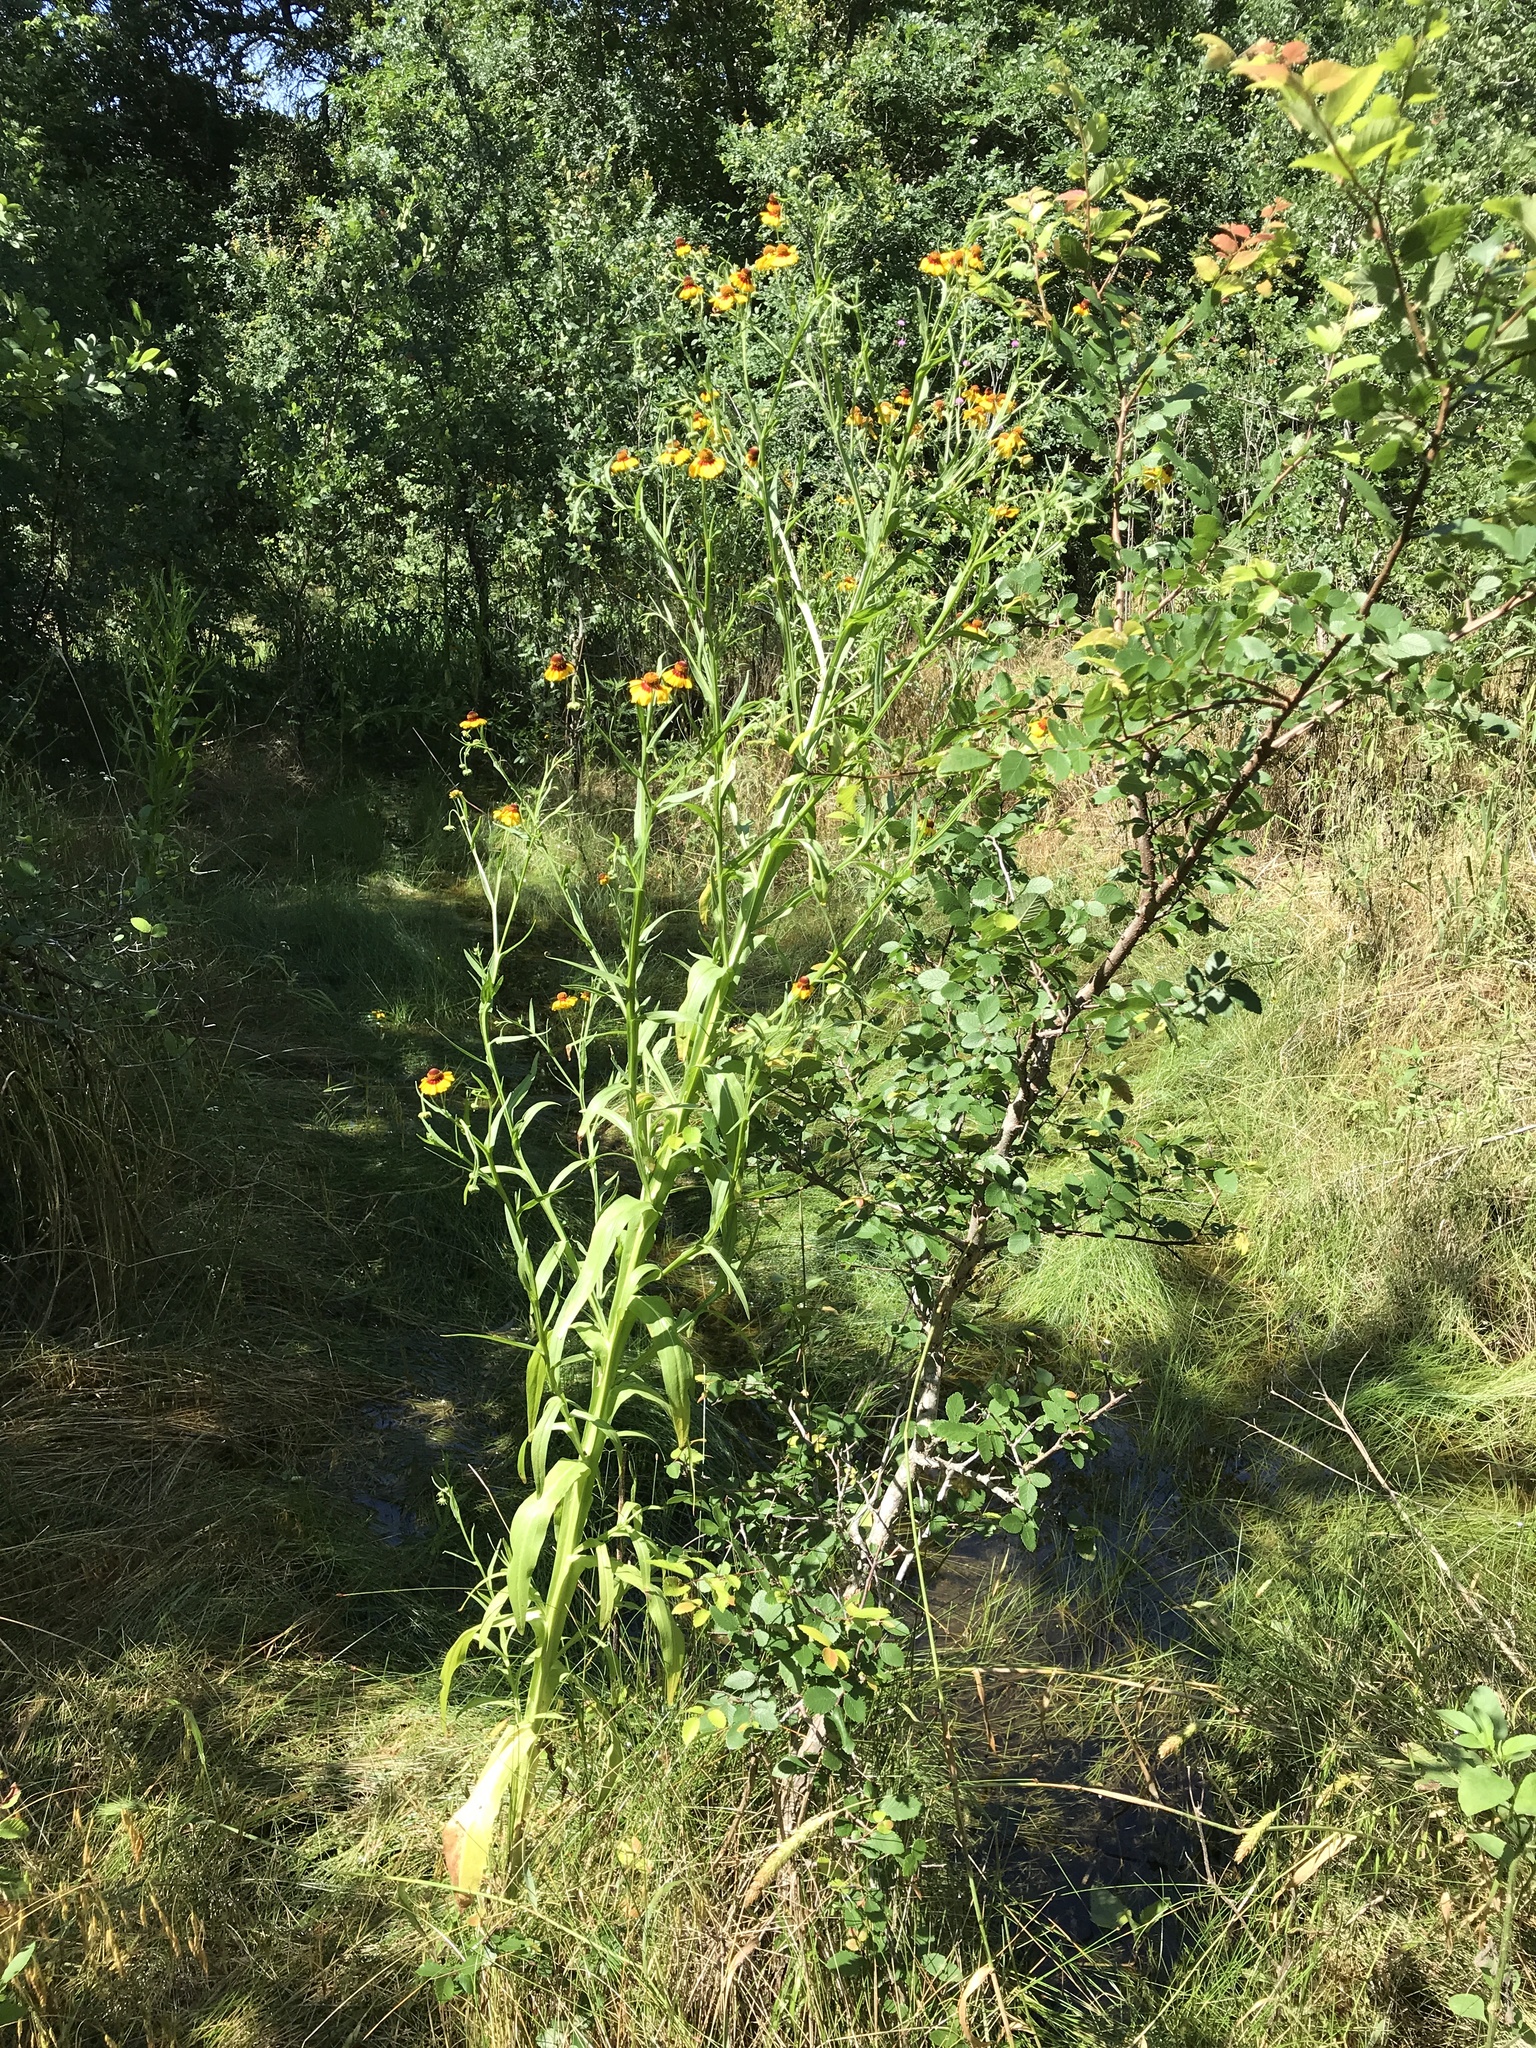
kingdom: Plantae
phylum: Tracheophyta
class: Magnoliopsida
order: Asterales
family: Asteraceae
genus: Helenium
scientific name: Helenium elegans
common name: Pretty sneezeweed
